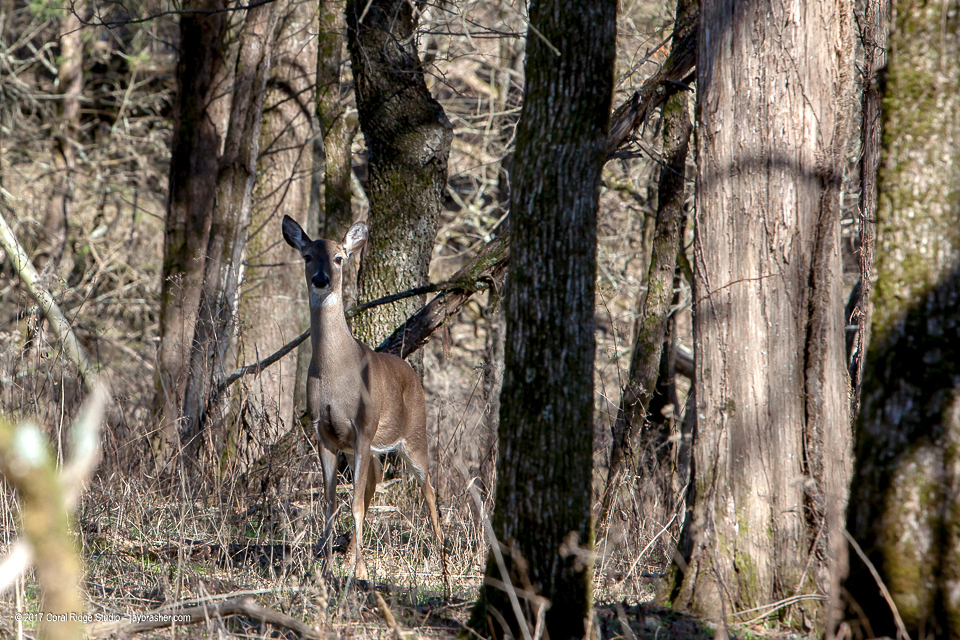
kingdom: Animalia
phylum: Chordata
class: Mammalia
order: Artiodactyla
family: Cervidae
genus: Odocoileus
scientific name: Odocoileus virginianus
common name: White-tailed deer
